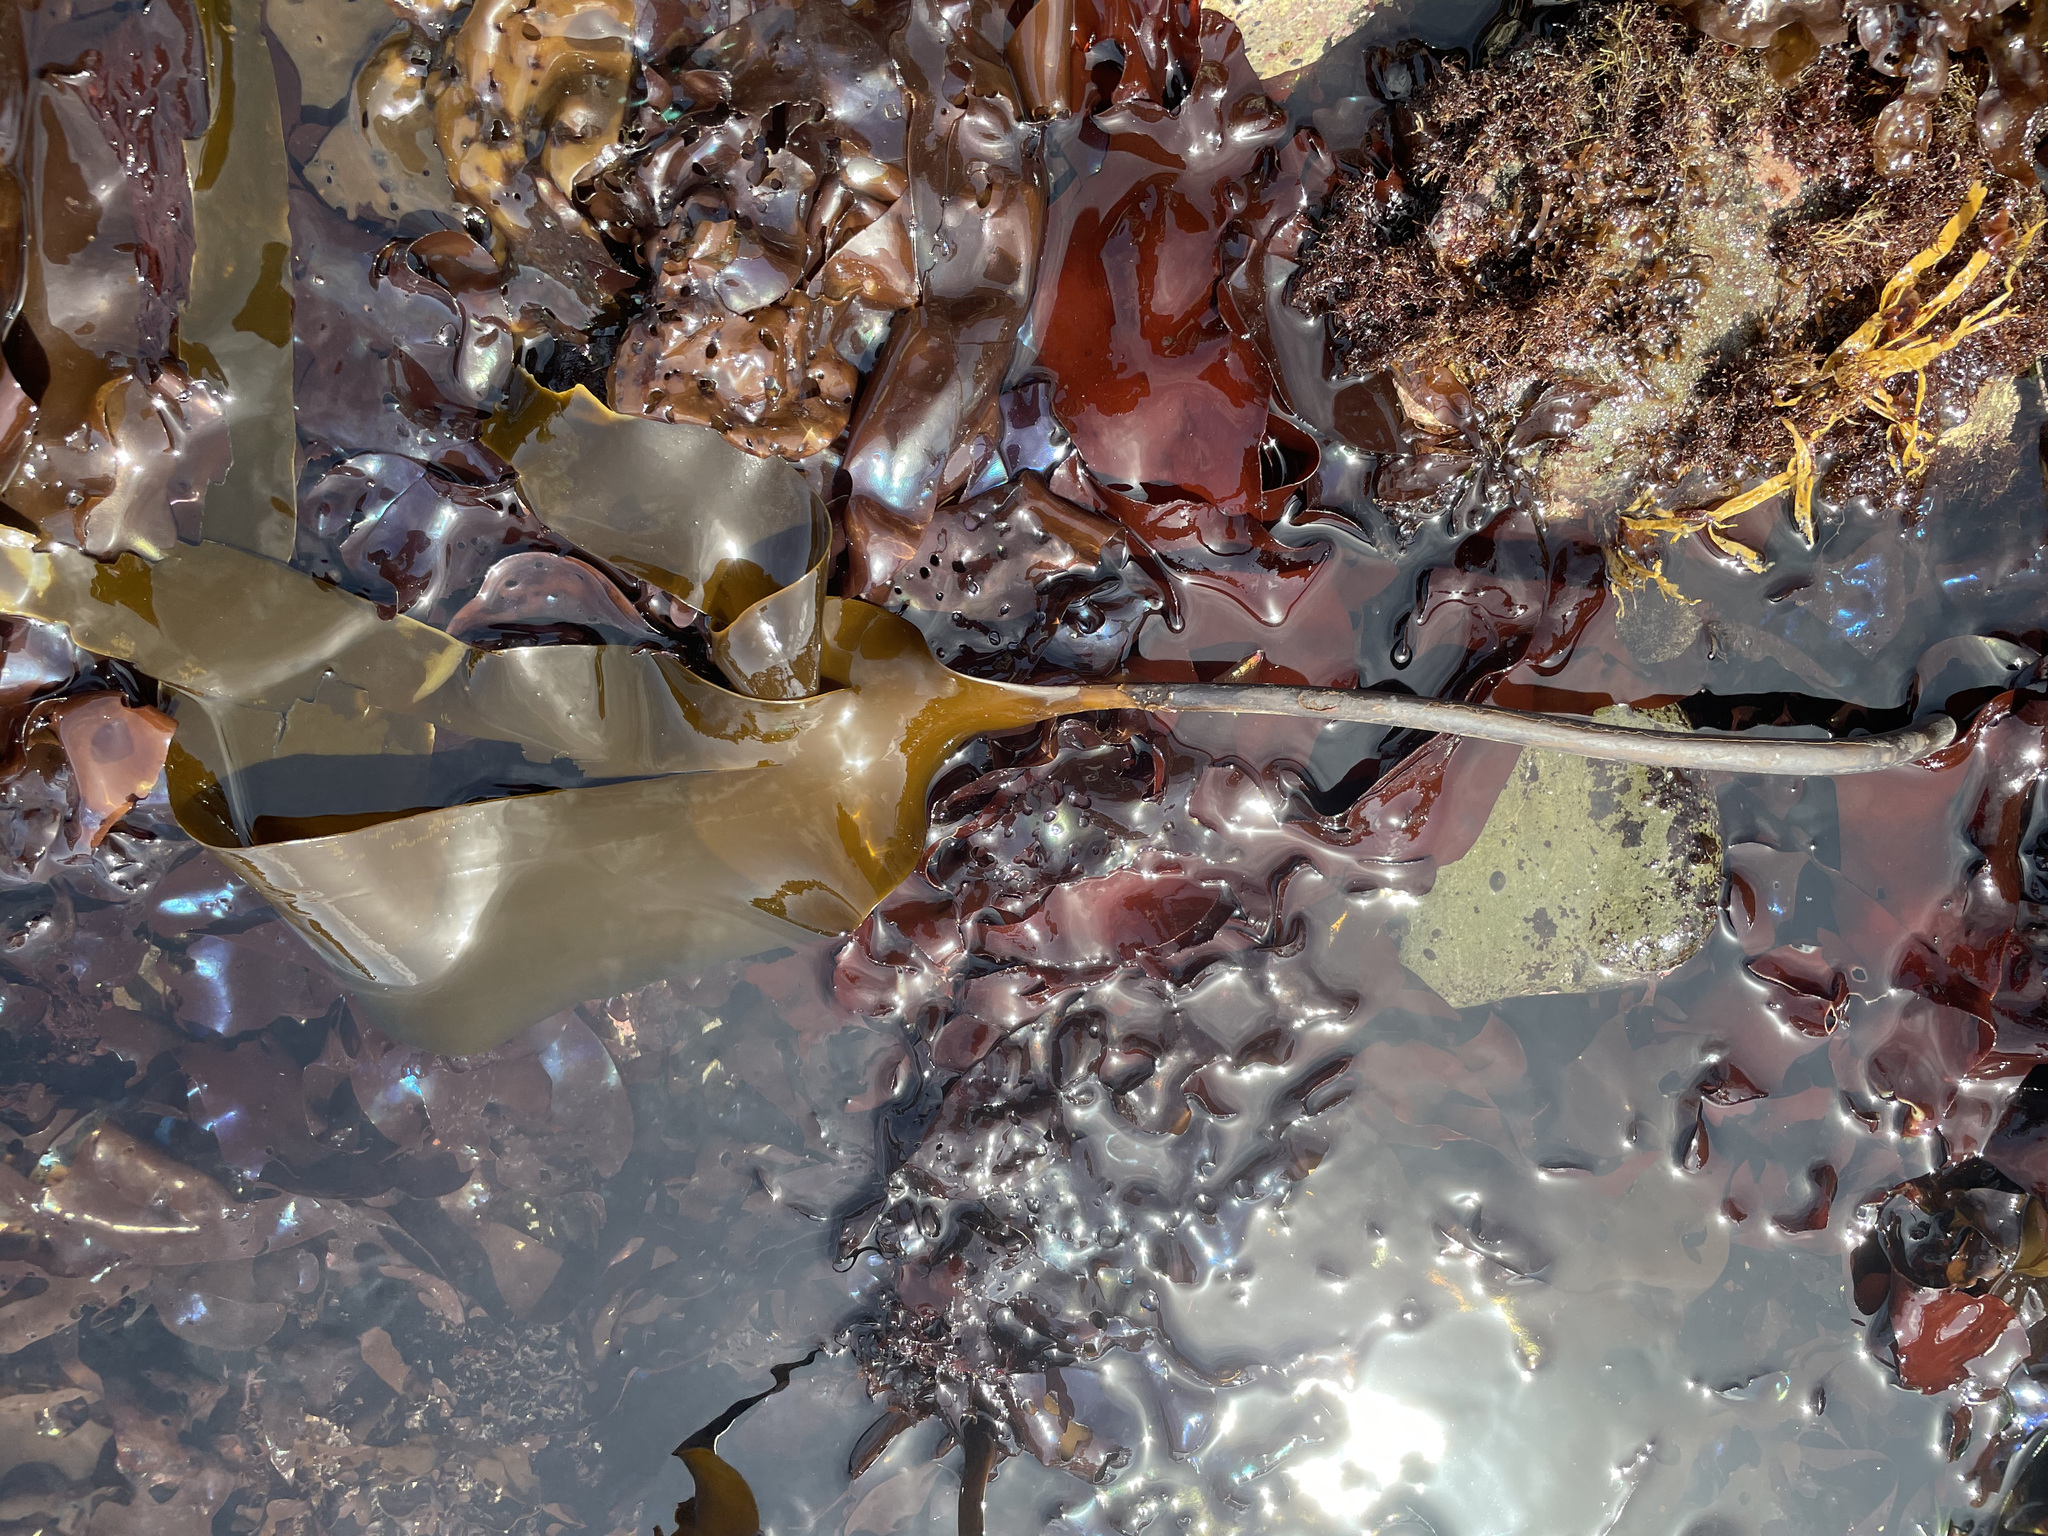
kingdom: Chromista
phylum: Ochrophyta
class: Phaeophyceae
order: Laminariales
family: Laminariaceae
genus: Laminaria
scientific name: Laminaria setchellii
